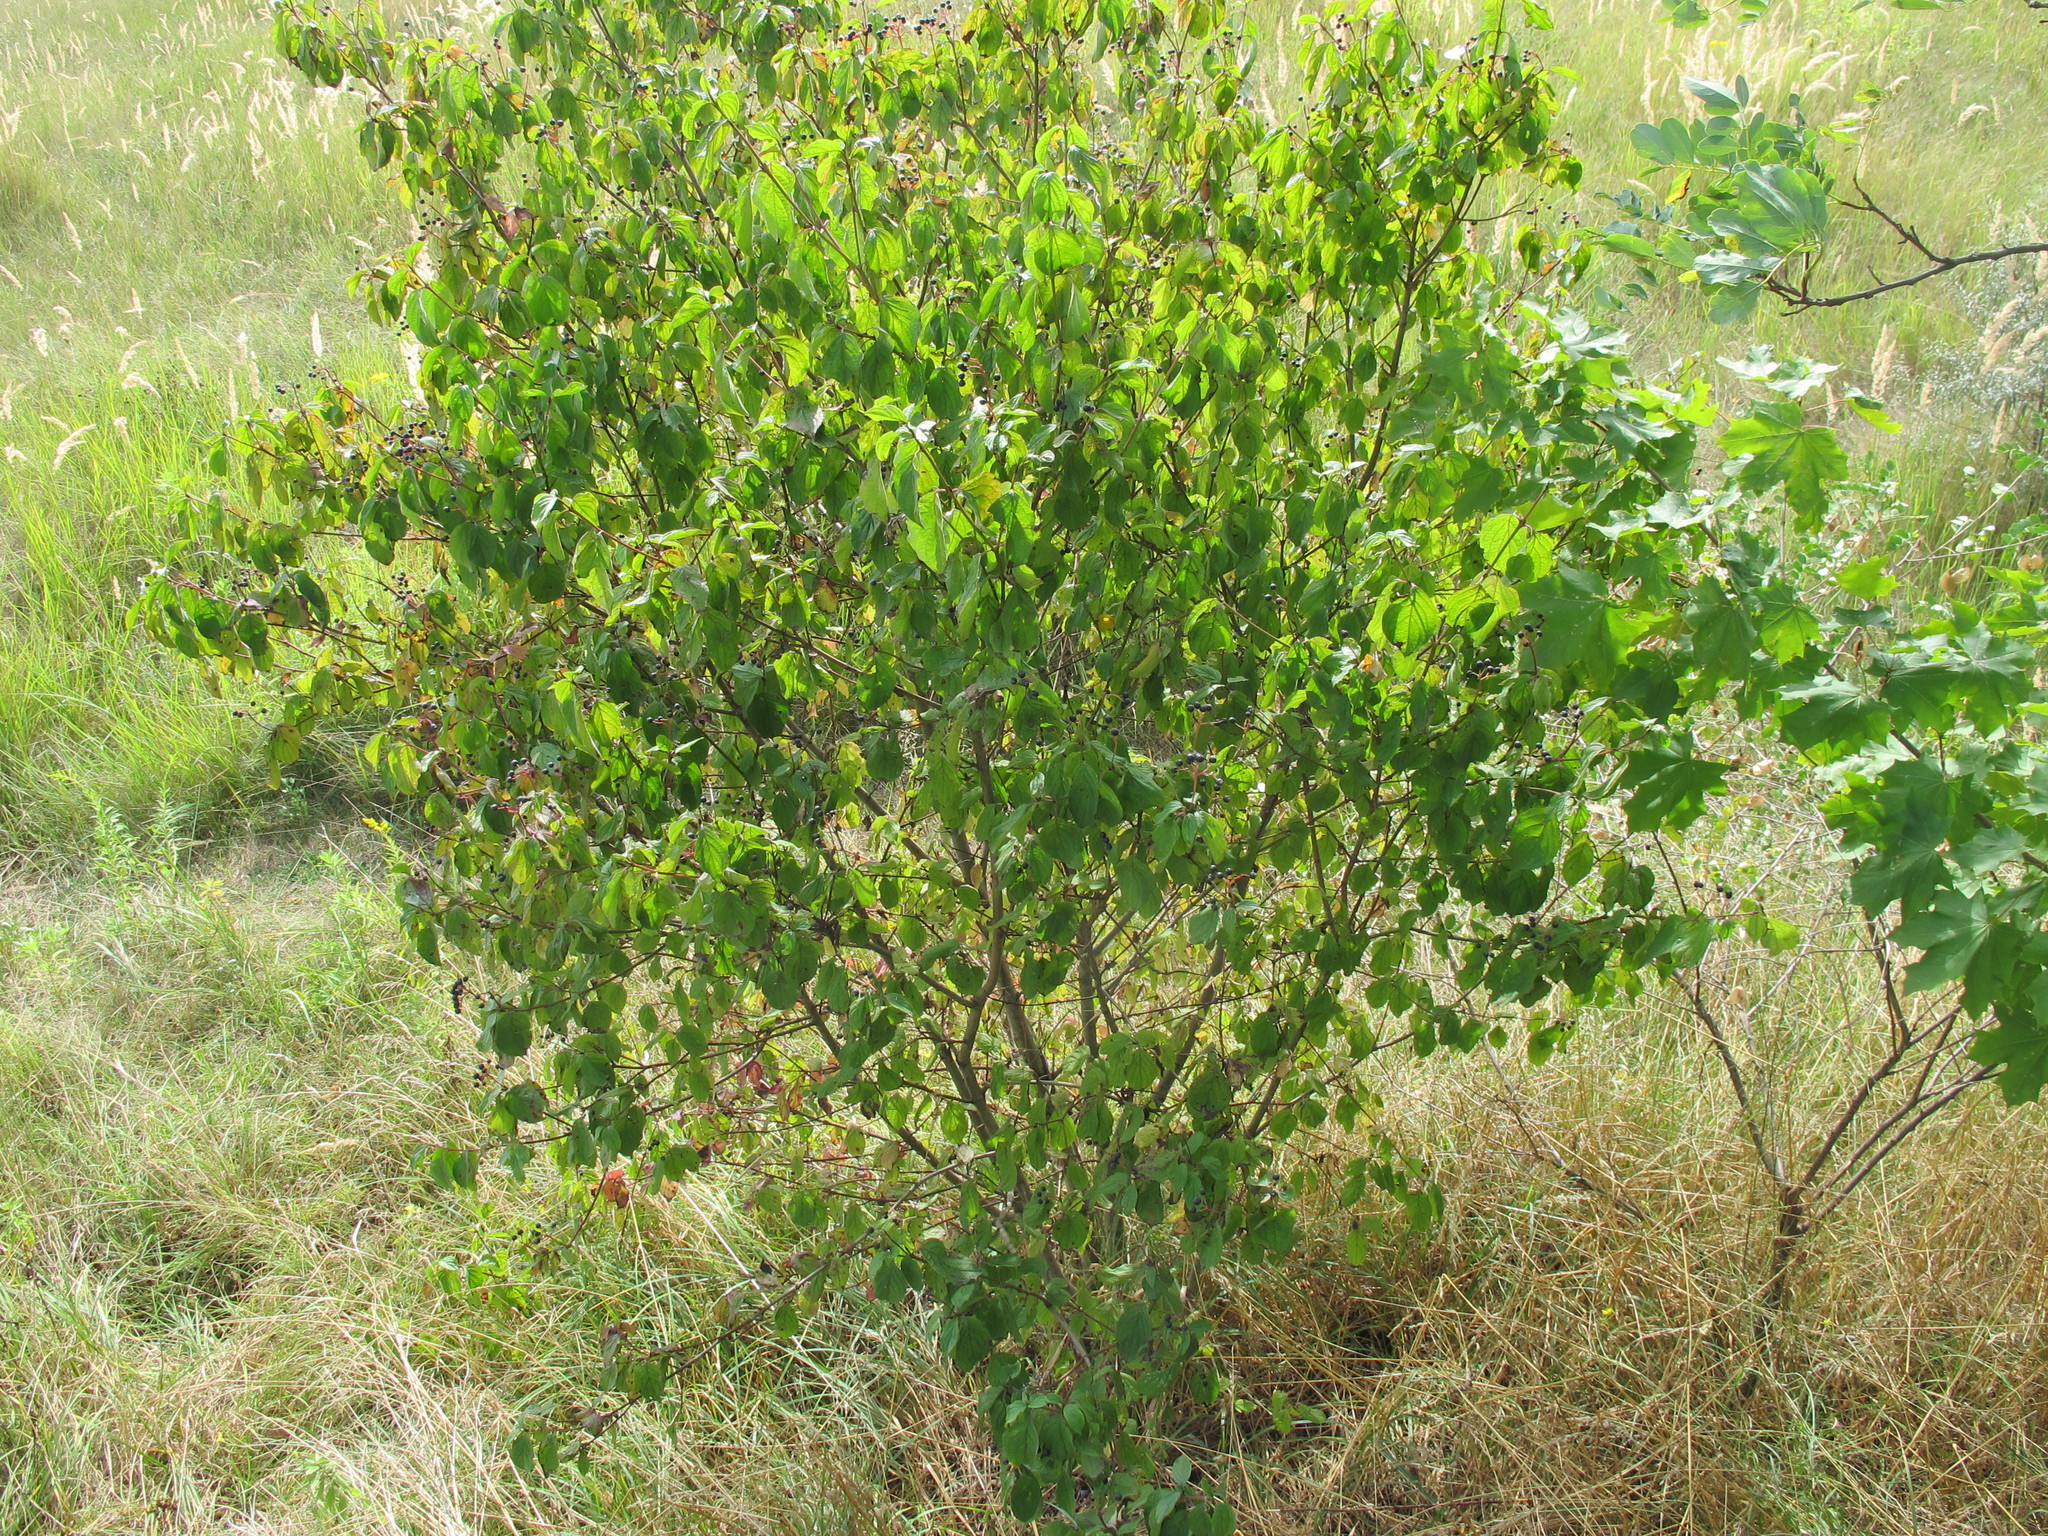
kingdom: Plantae
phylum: Tracheophyta
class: Magnoliopsida
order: Cornales
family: Cornaceae
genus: Cornus
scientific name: Cornus sanguinea
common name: Dogwood
